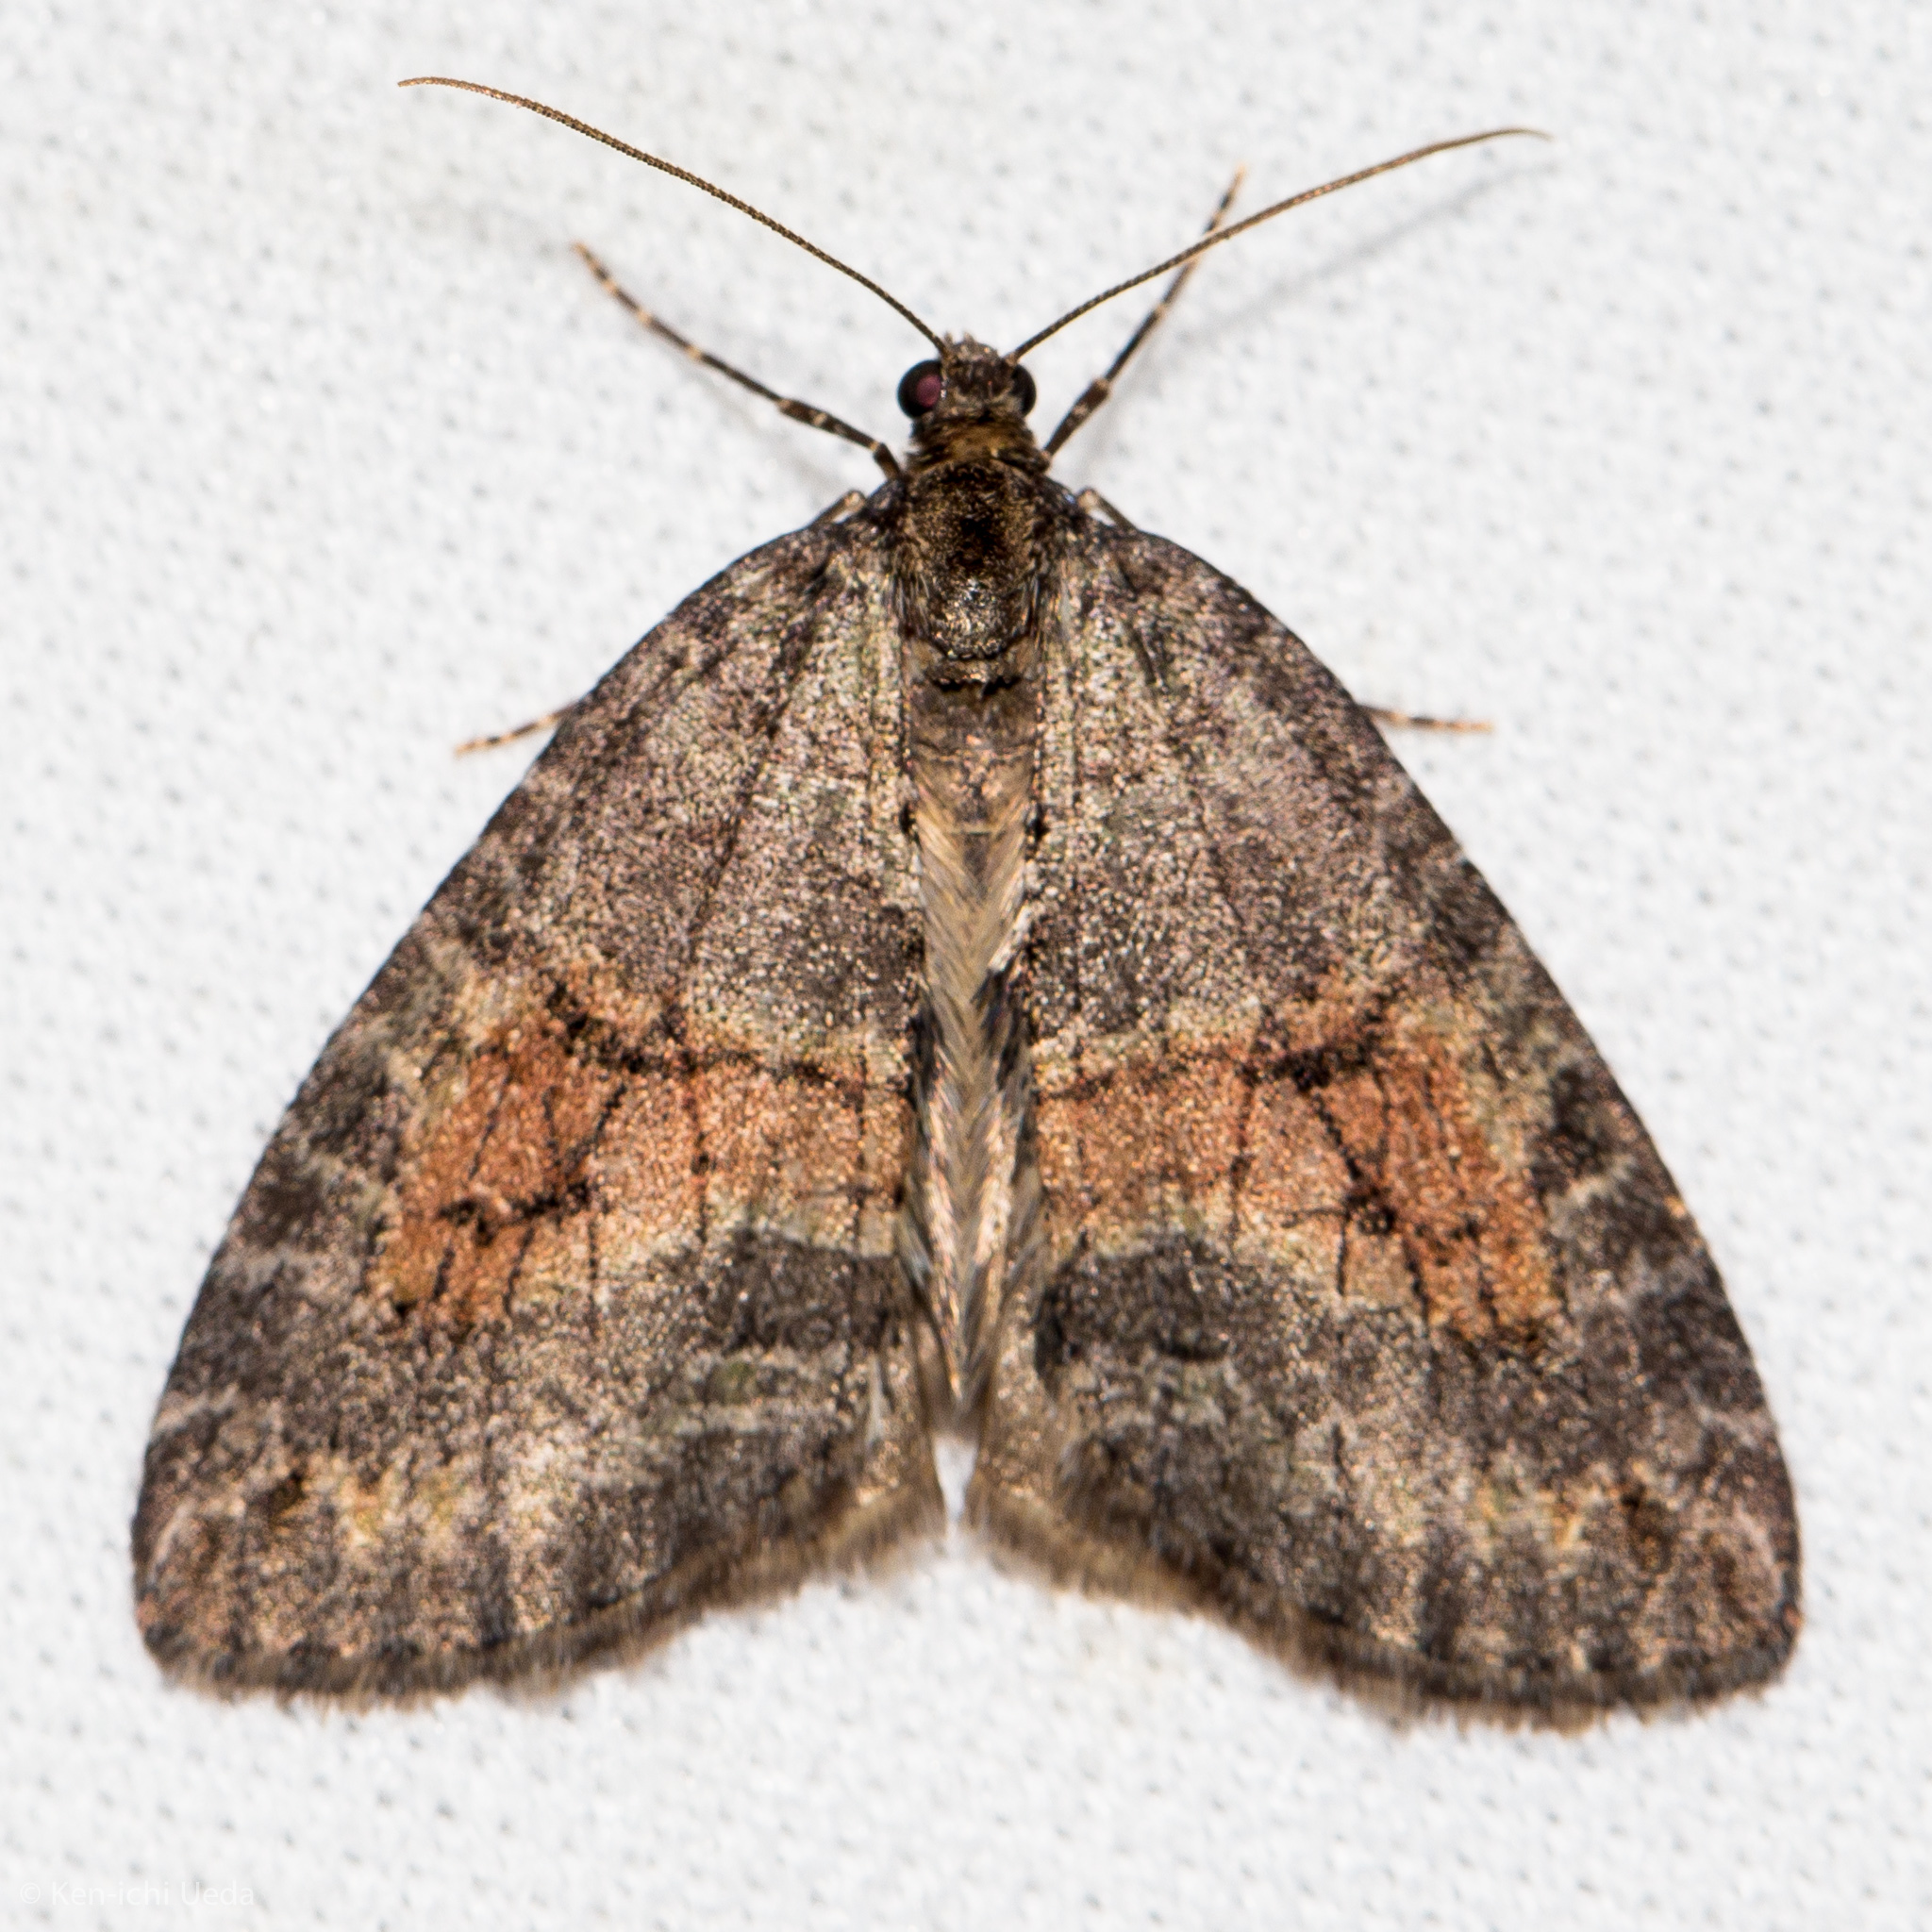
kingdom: Animalia
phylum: Arthropoda
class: Insecta
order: Lepidoptera
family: Geometridae
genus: Hydriomena
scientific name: Hydriomena nubilofasciata
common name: Oak winter highflier moth
